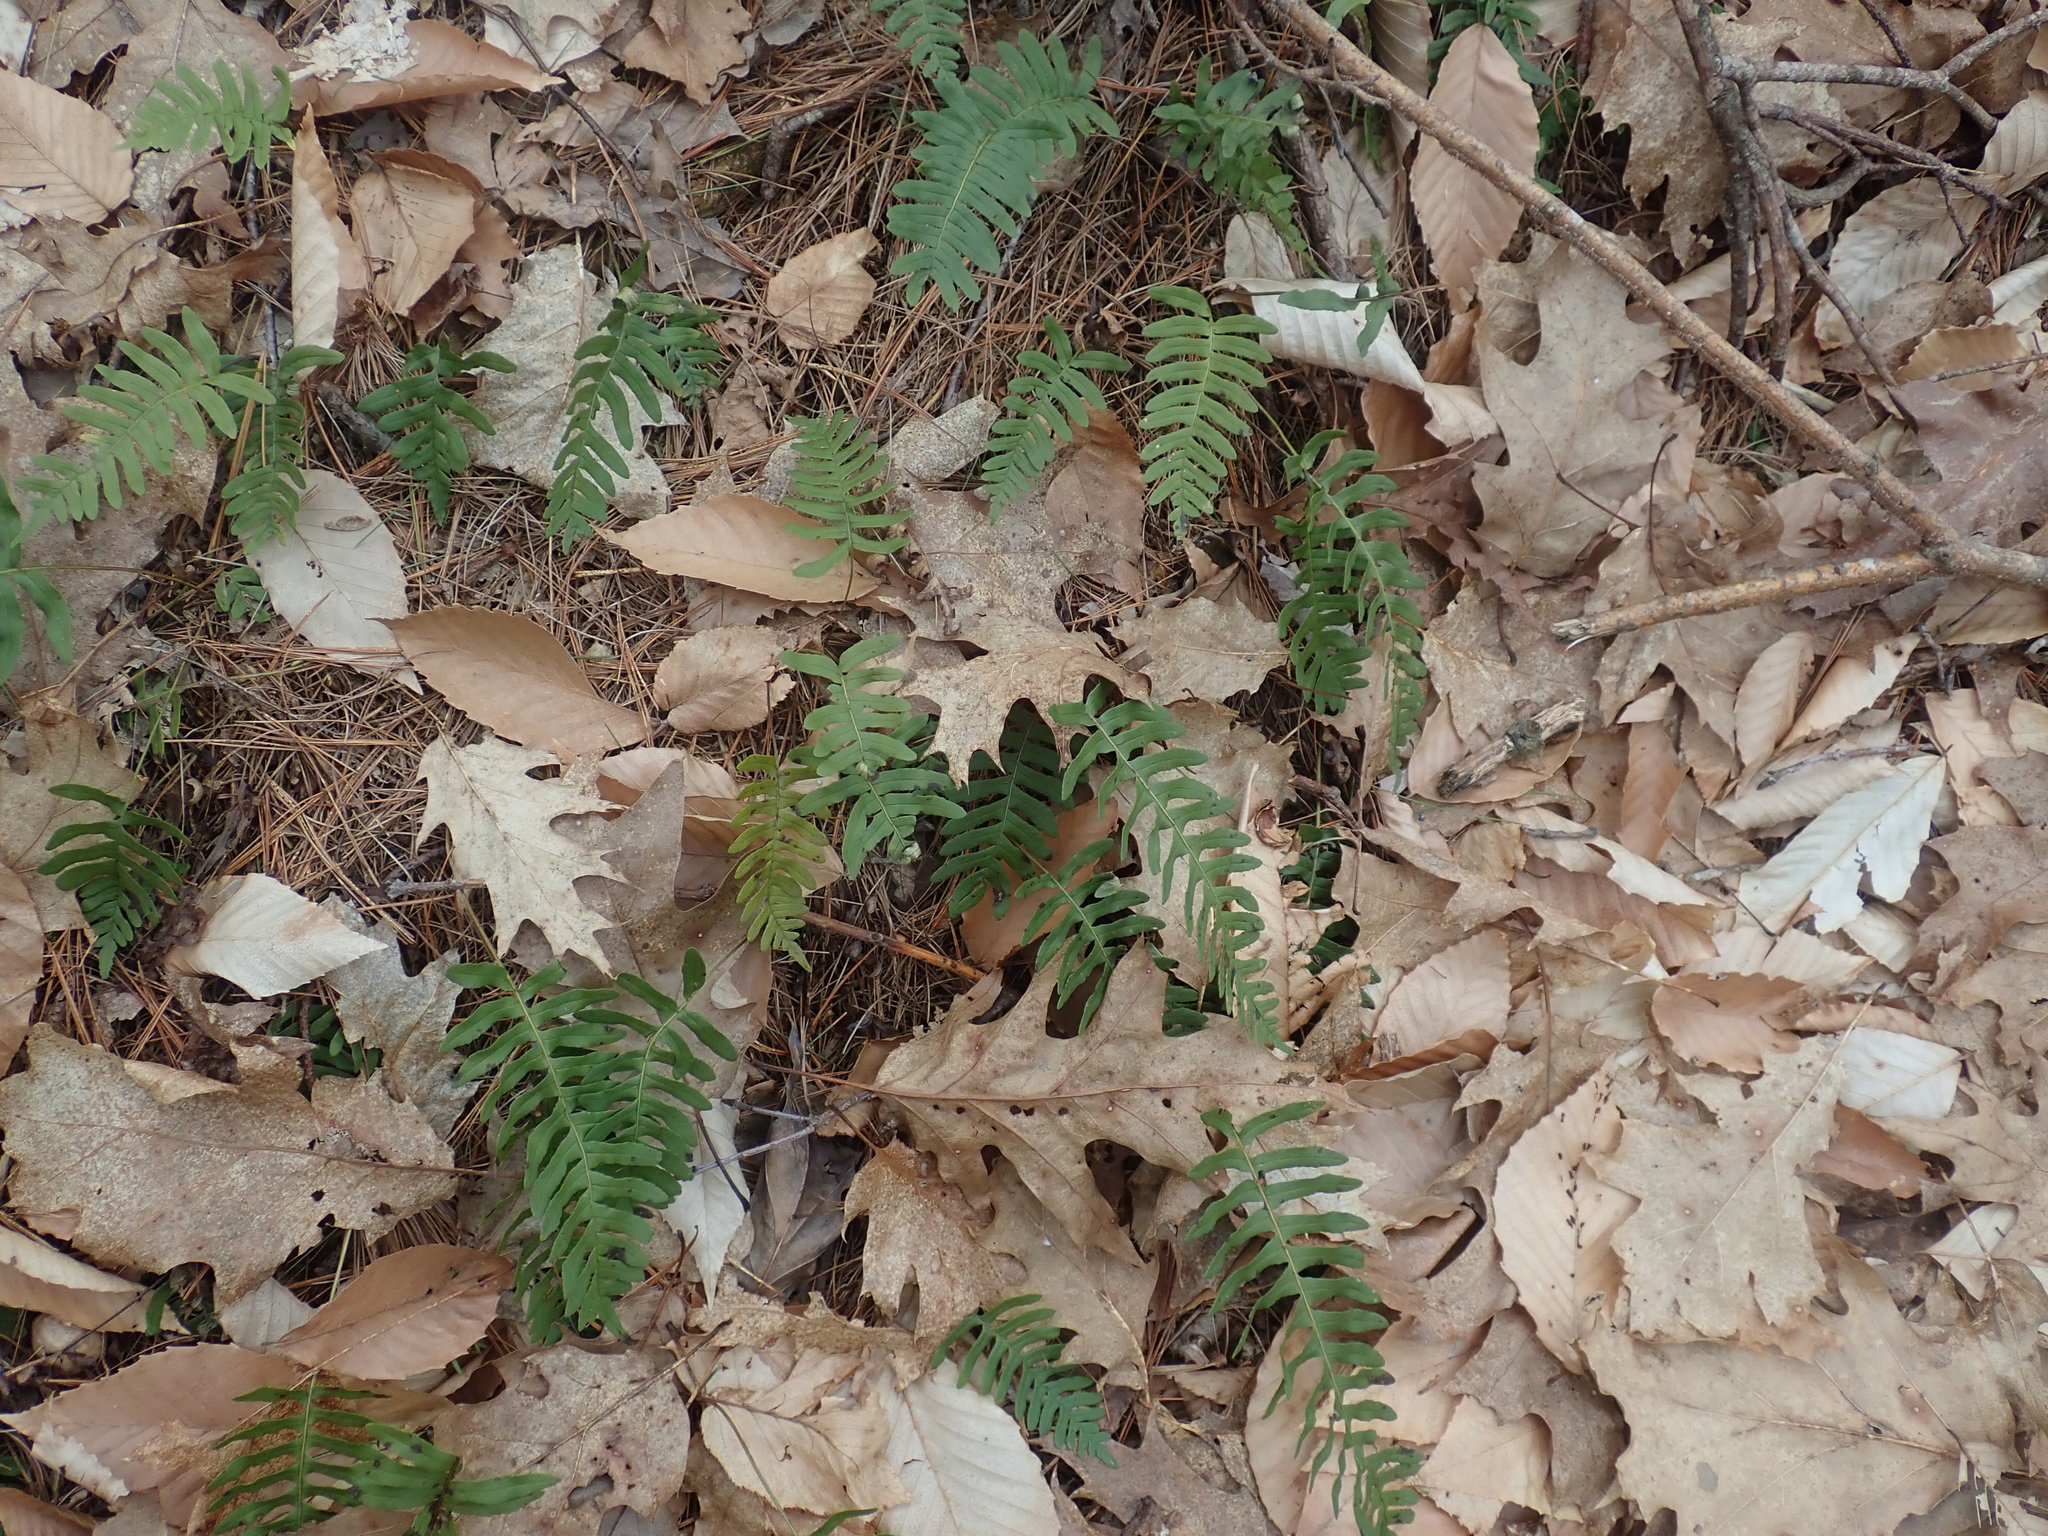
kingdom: Plantae
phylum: Tracheophyta
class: Polypodiopsida
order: Polypodiales
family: Polypodiaceae
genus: Polypodium
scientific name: Polypodium
